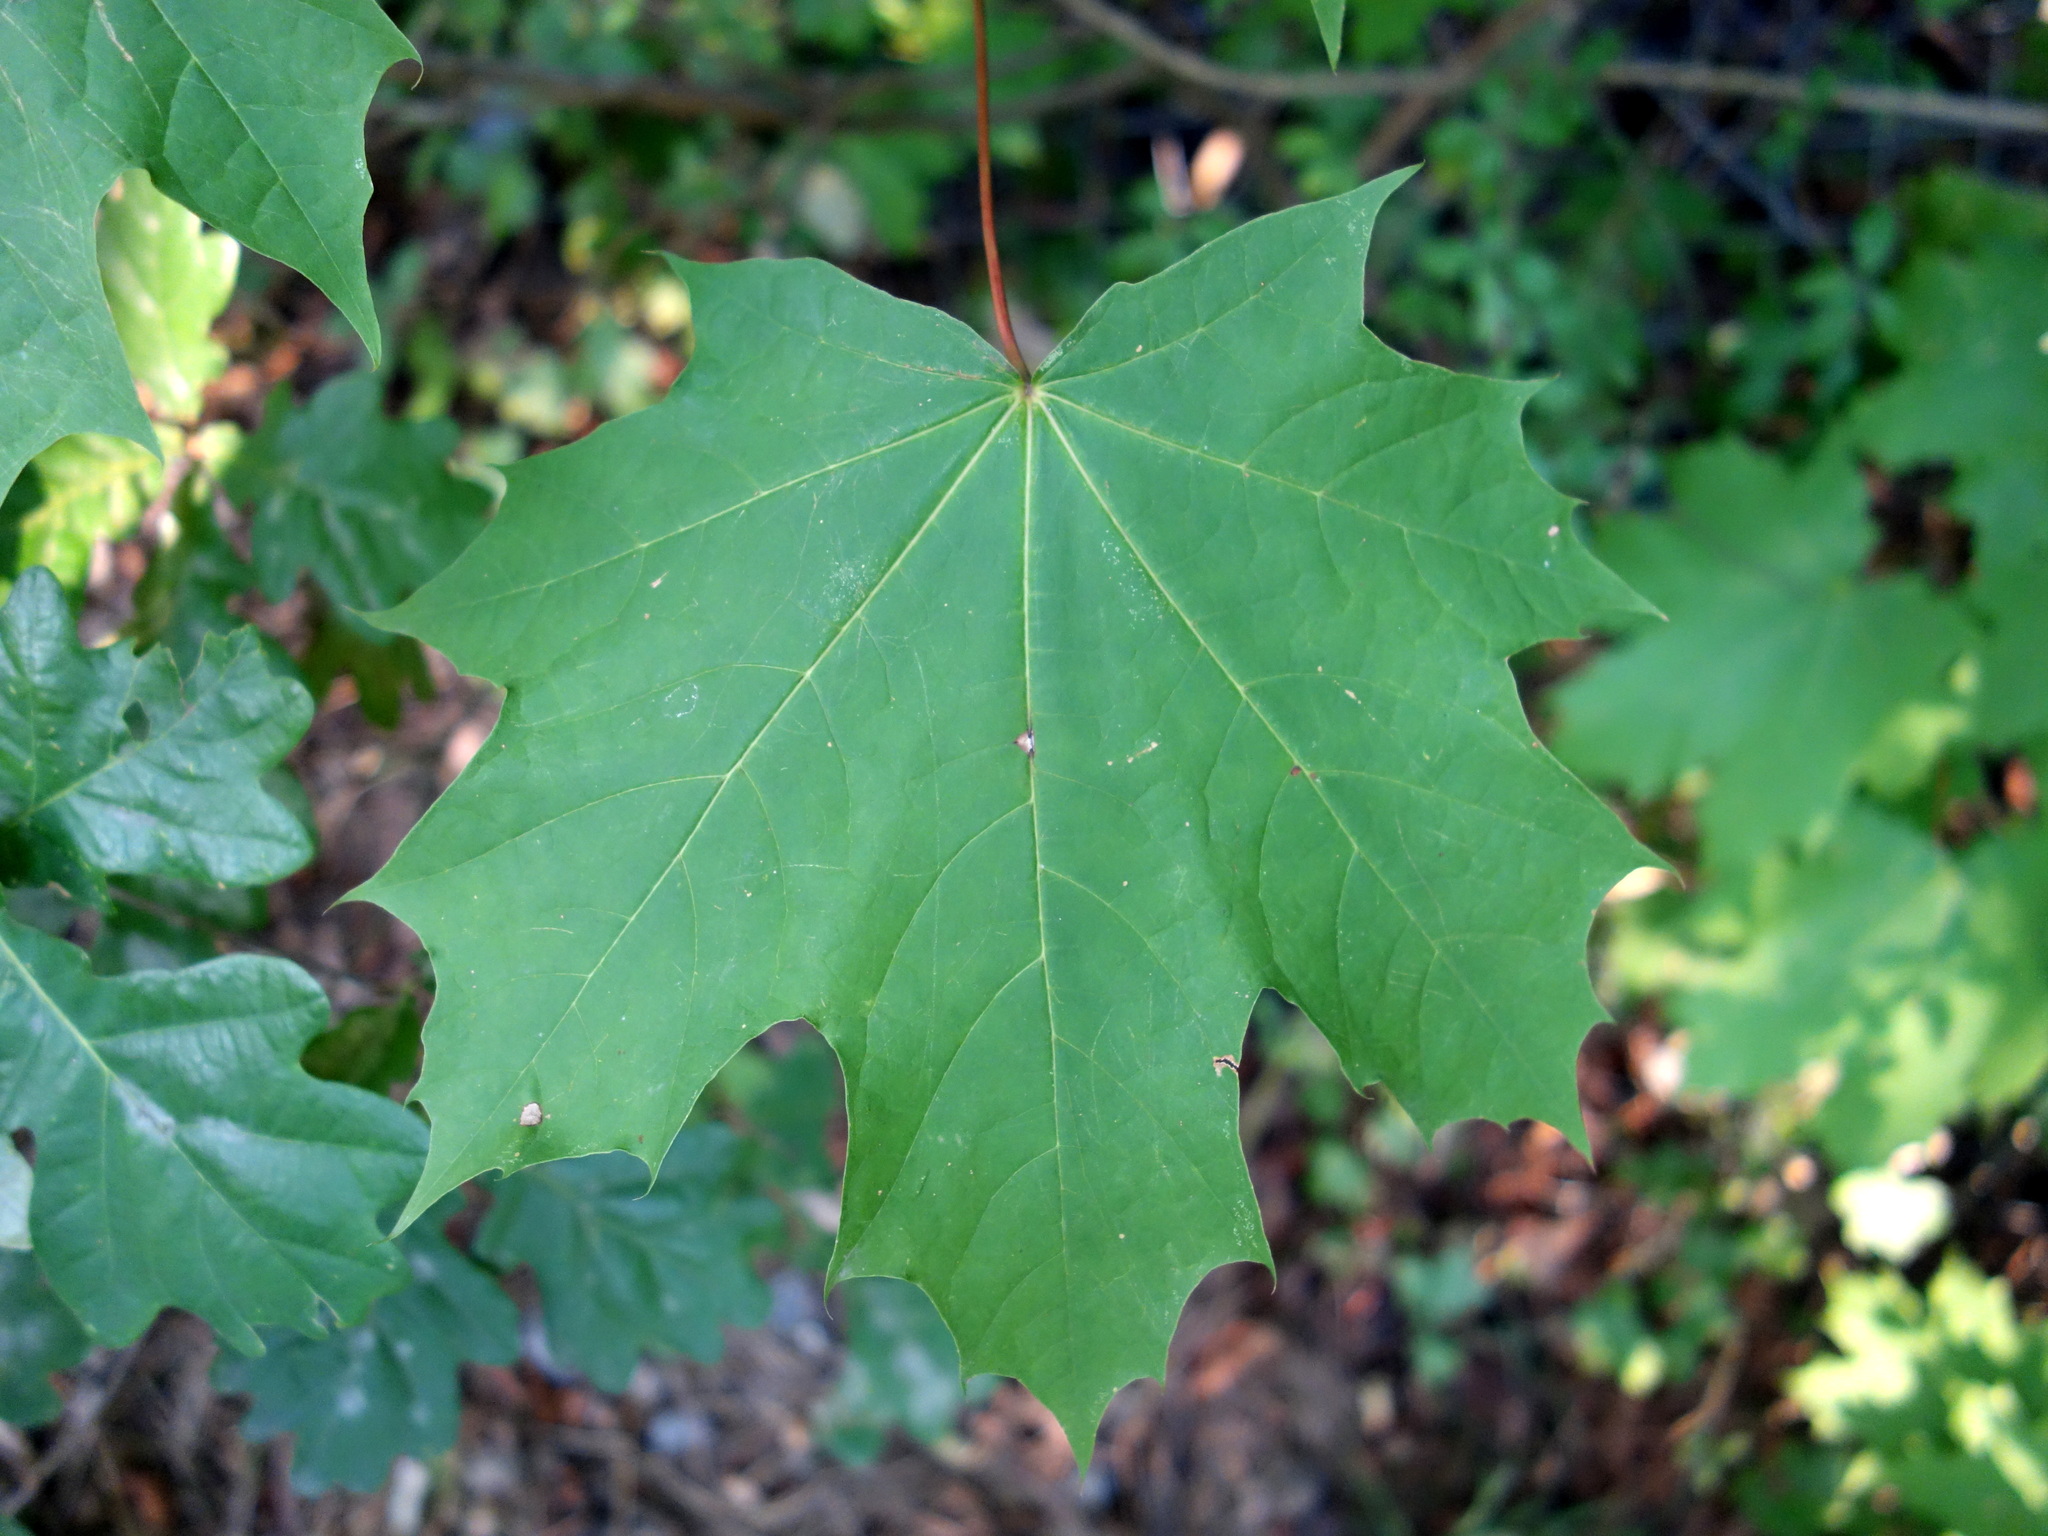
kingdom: Plantae
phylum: Tracheophyta
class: Magnoliopsida
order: Sapindales
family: Sapindaceae
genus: Acer
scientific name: Acer platanoides
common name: Norway maple
